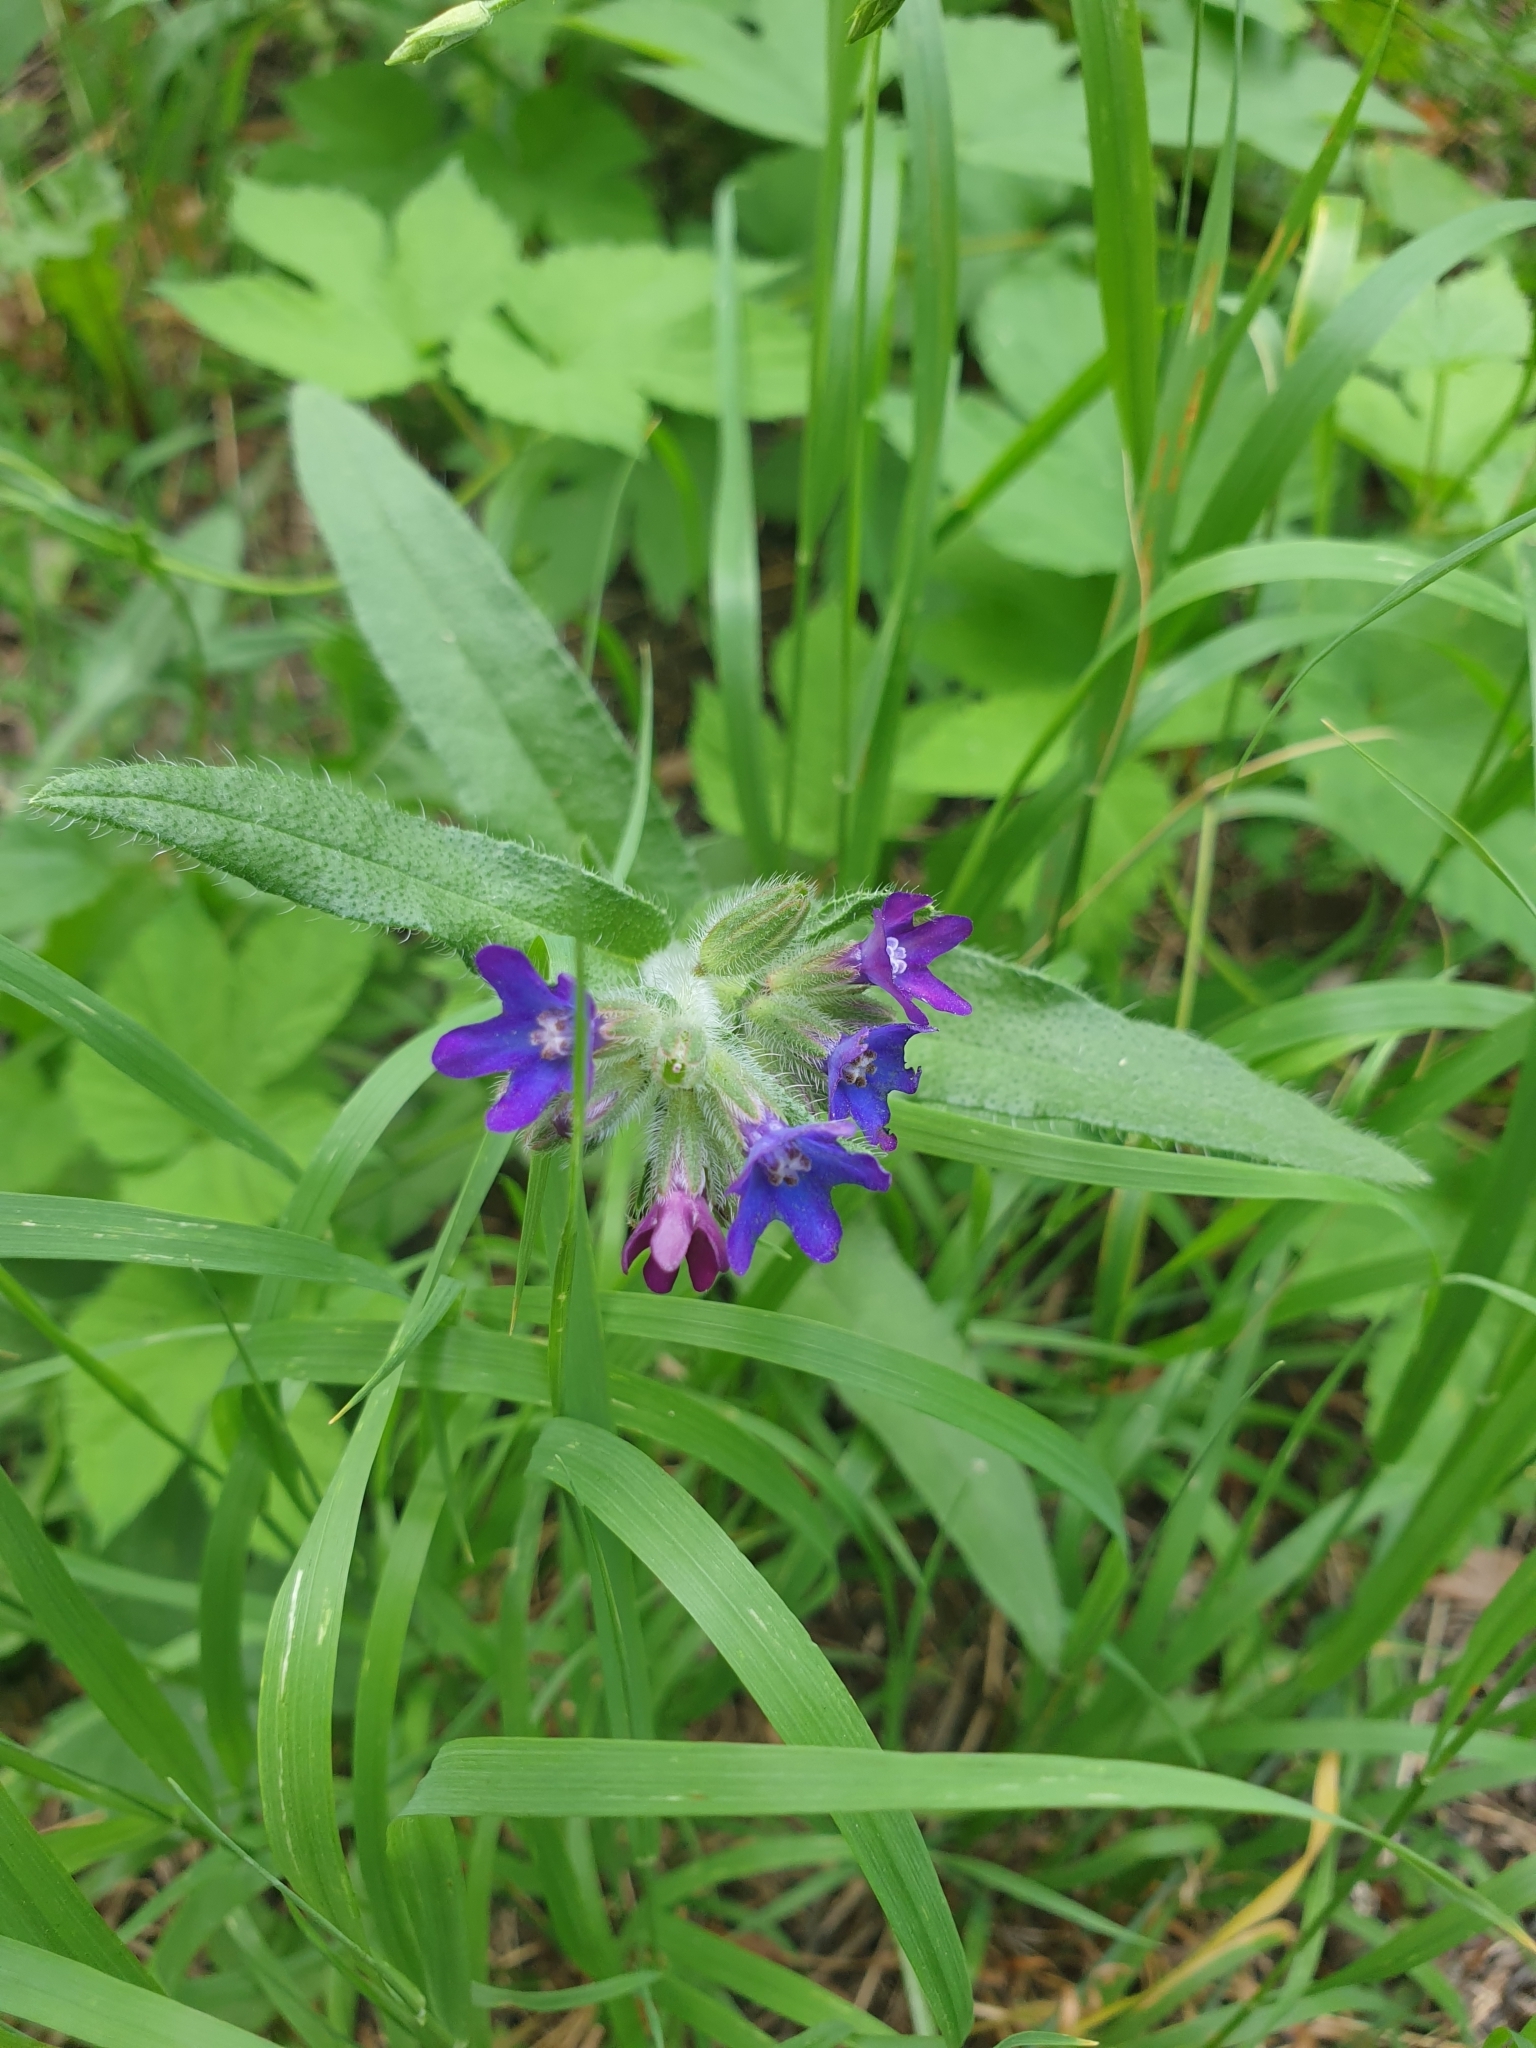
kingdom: Plantae
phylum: Tracheophyta
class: Magnoliopsida
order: Boraginales
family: Boraginaceae
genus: Anchusa
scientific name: Anchusa officinalis
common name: Alkanet
